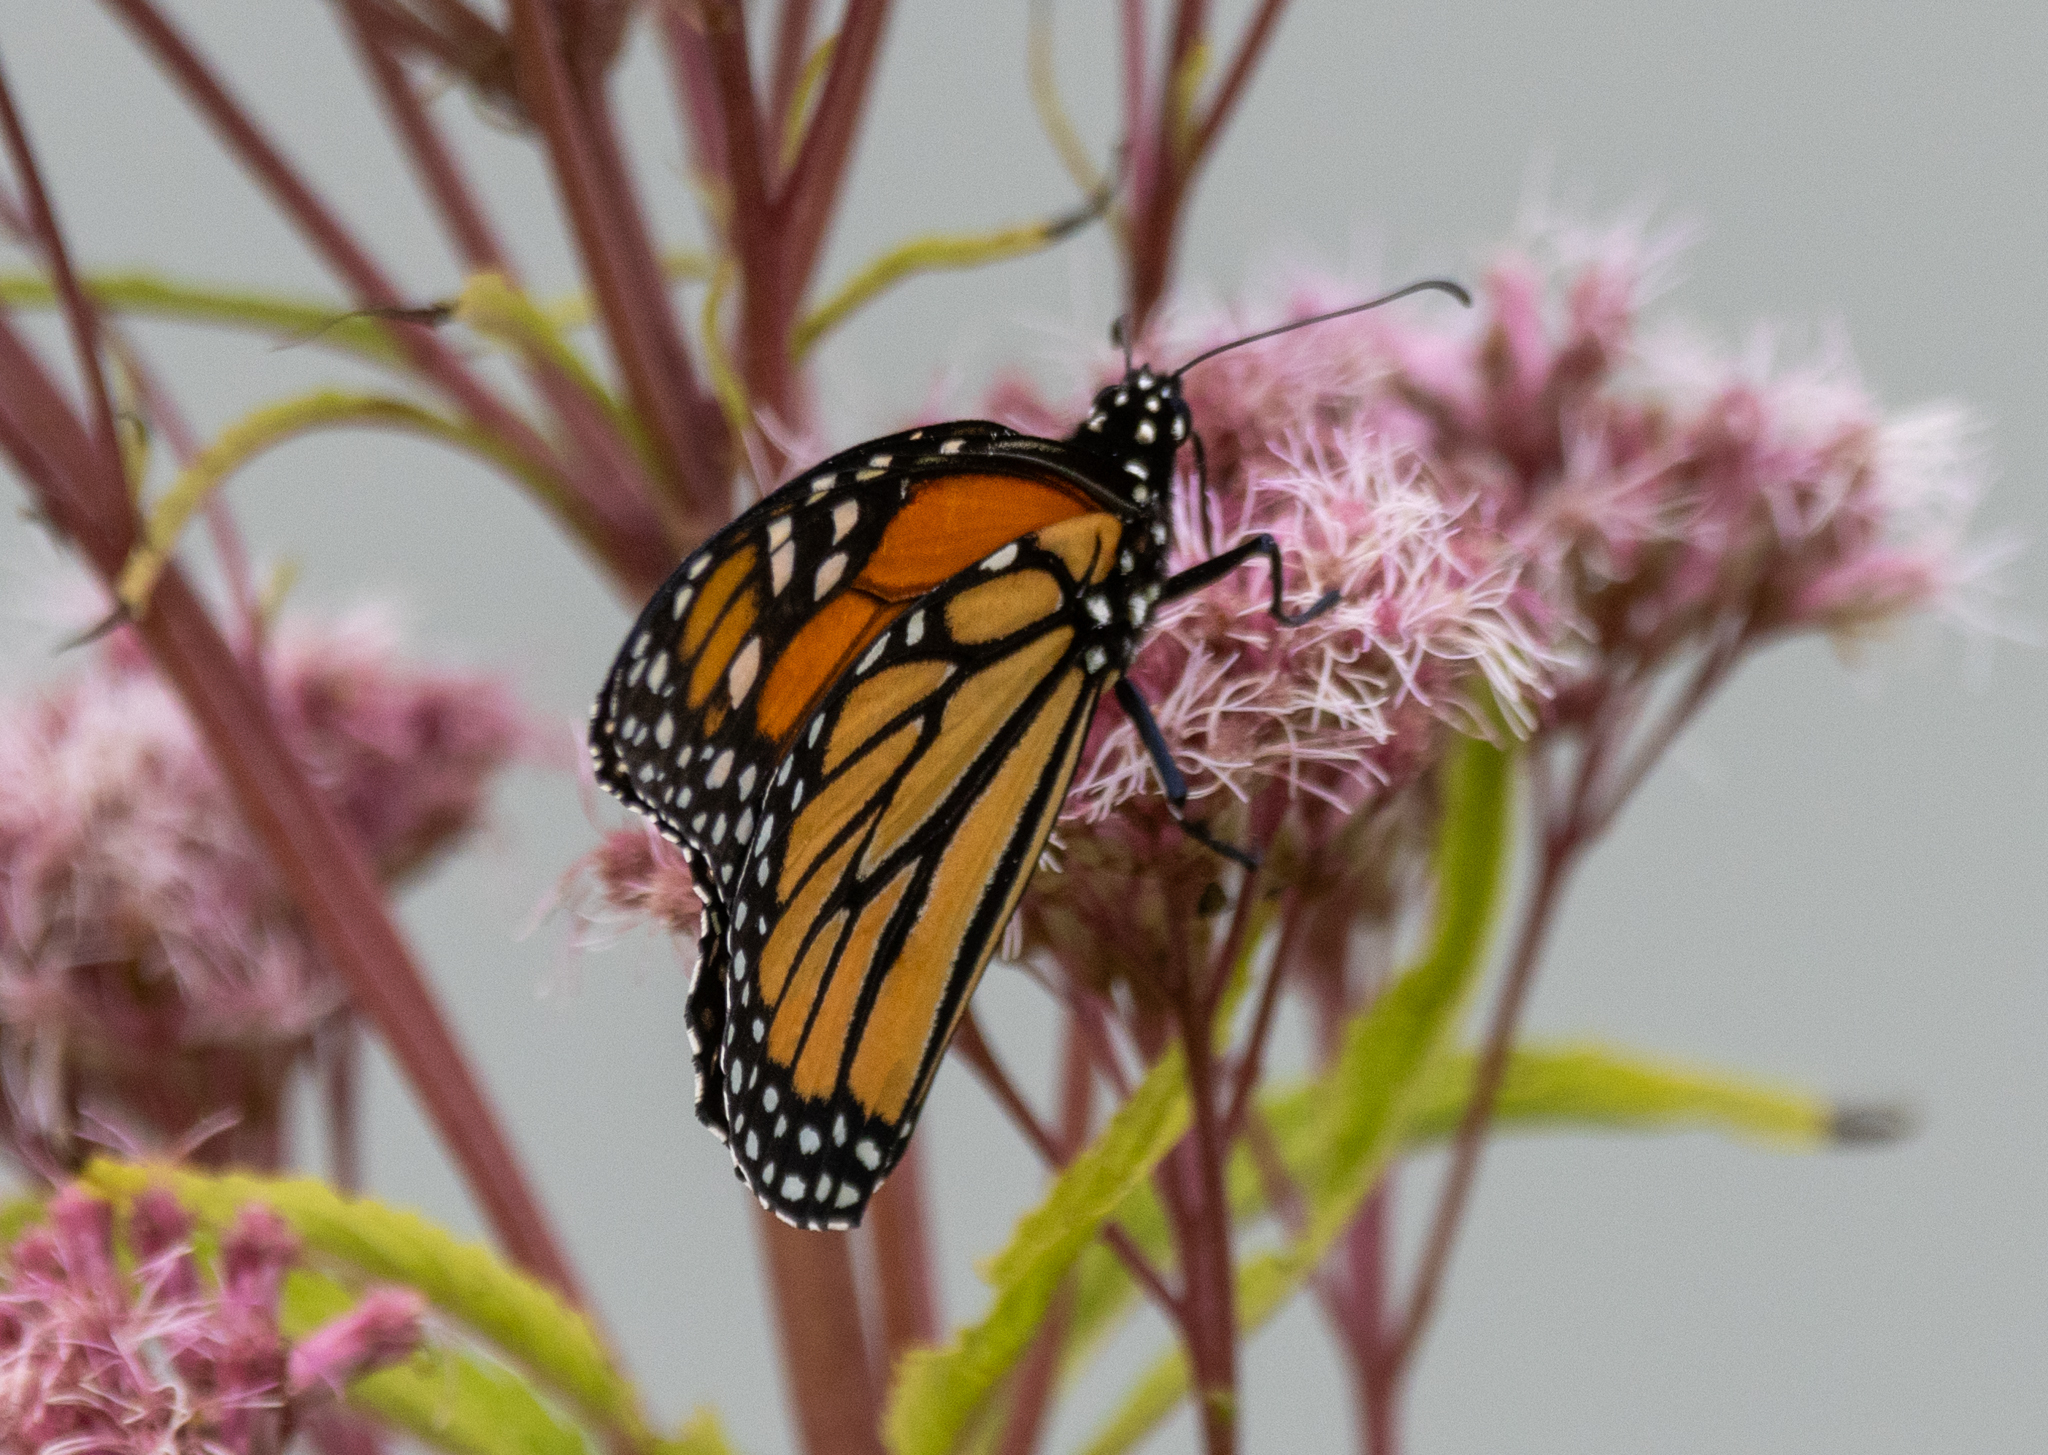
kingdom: Animalia
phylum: Arthropoda
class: Insecta
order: Lepidoptera
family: Nymphalidae
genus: Danaus
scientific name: Danaus plexippus
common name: Monarch
